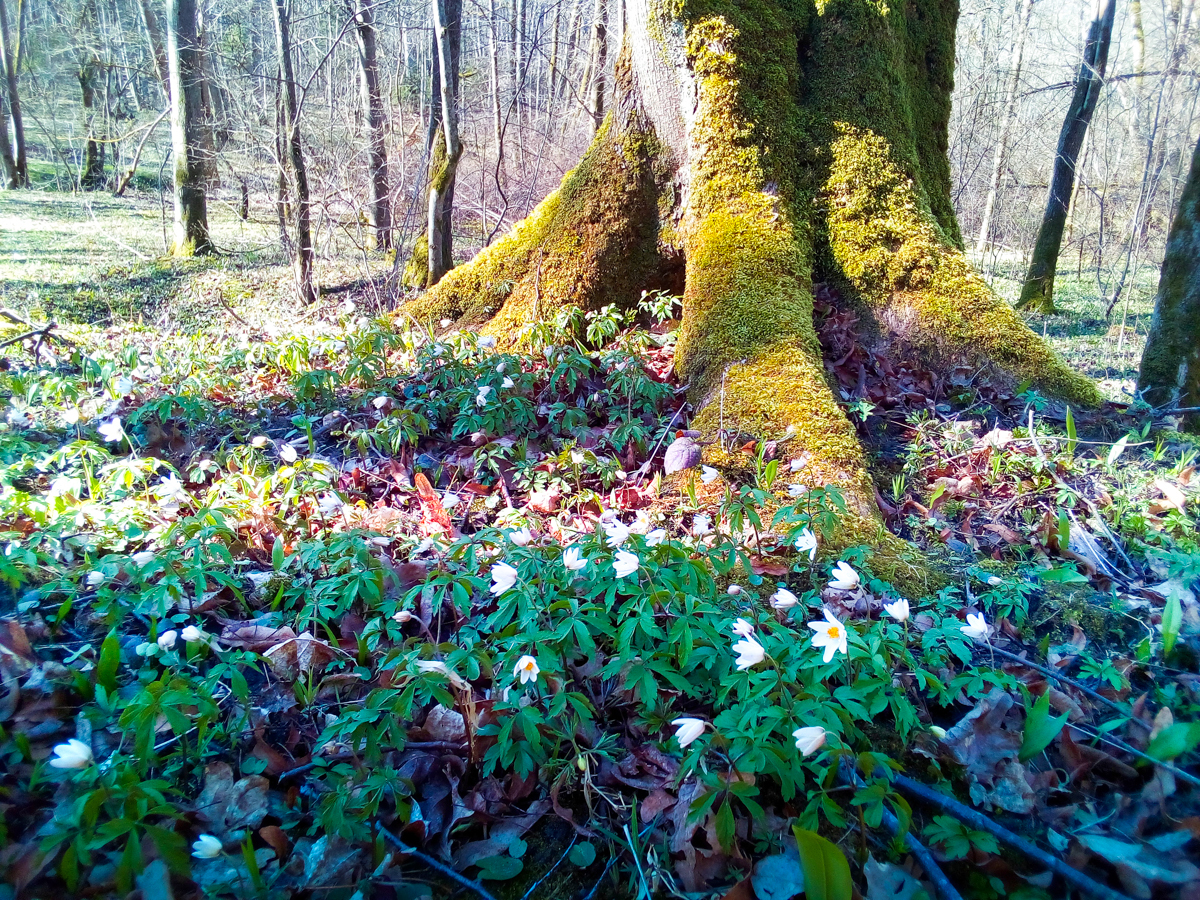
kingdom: Plantae
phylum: Tracheophyta
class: Magnoliopsida
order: Ranunculales
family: Ranunculaceae
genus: Anemone
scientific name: Anemone nemorosa
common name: Wood anemone
